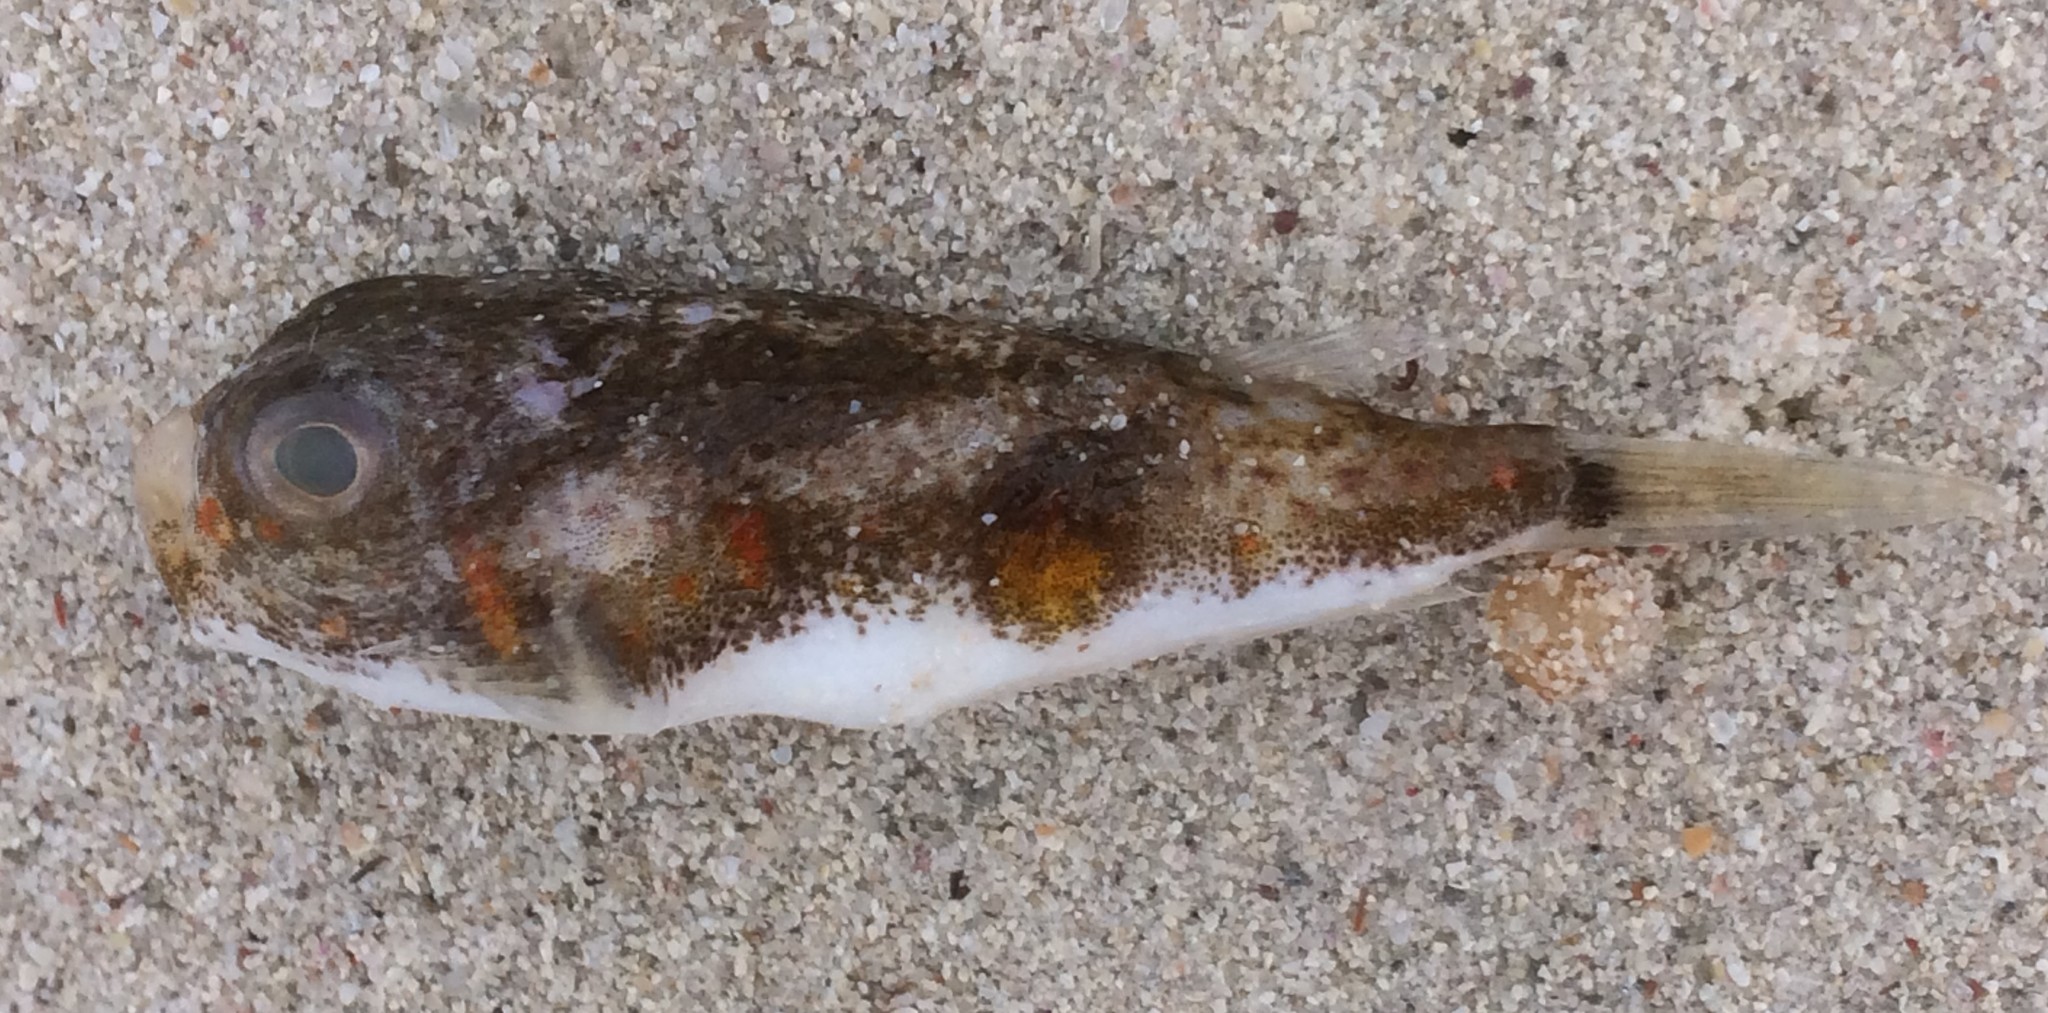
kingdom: Animalia
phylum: Chordata
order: Tetraodontiformes
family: Tetraodontidae
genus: Polyspina
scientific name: Polyspina piosae
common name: Orange-barred pufferfish
